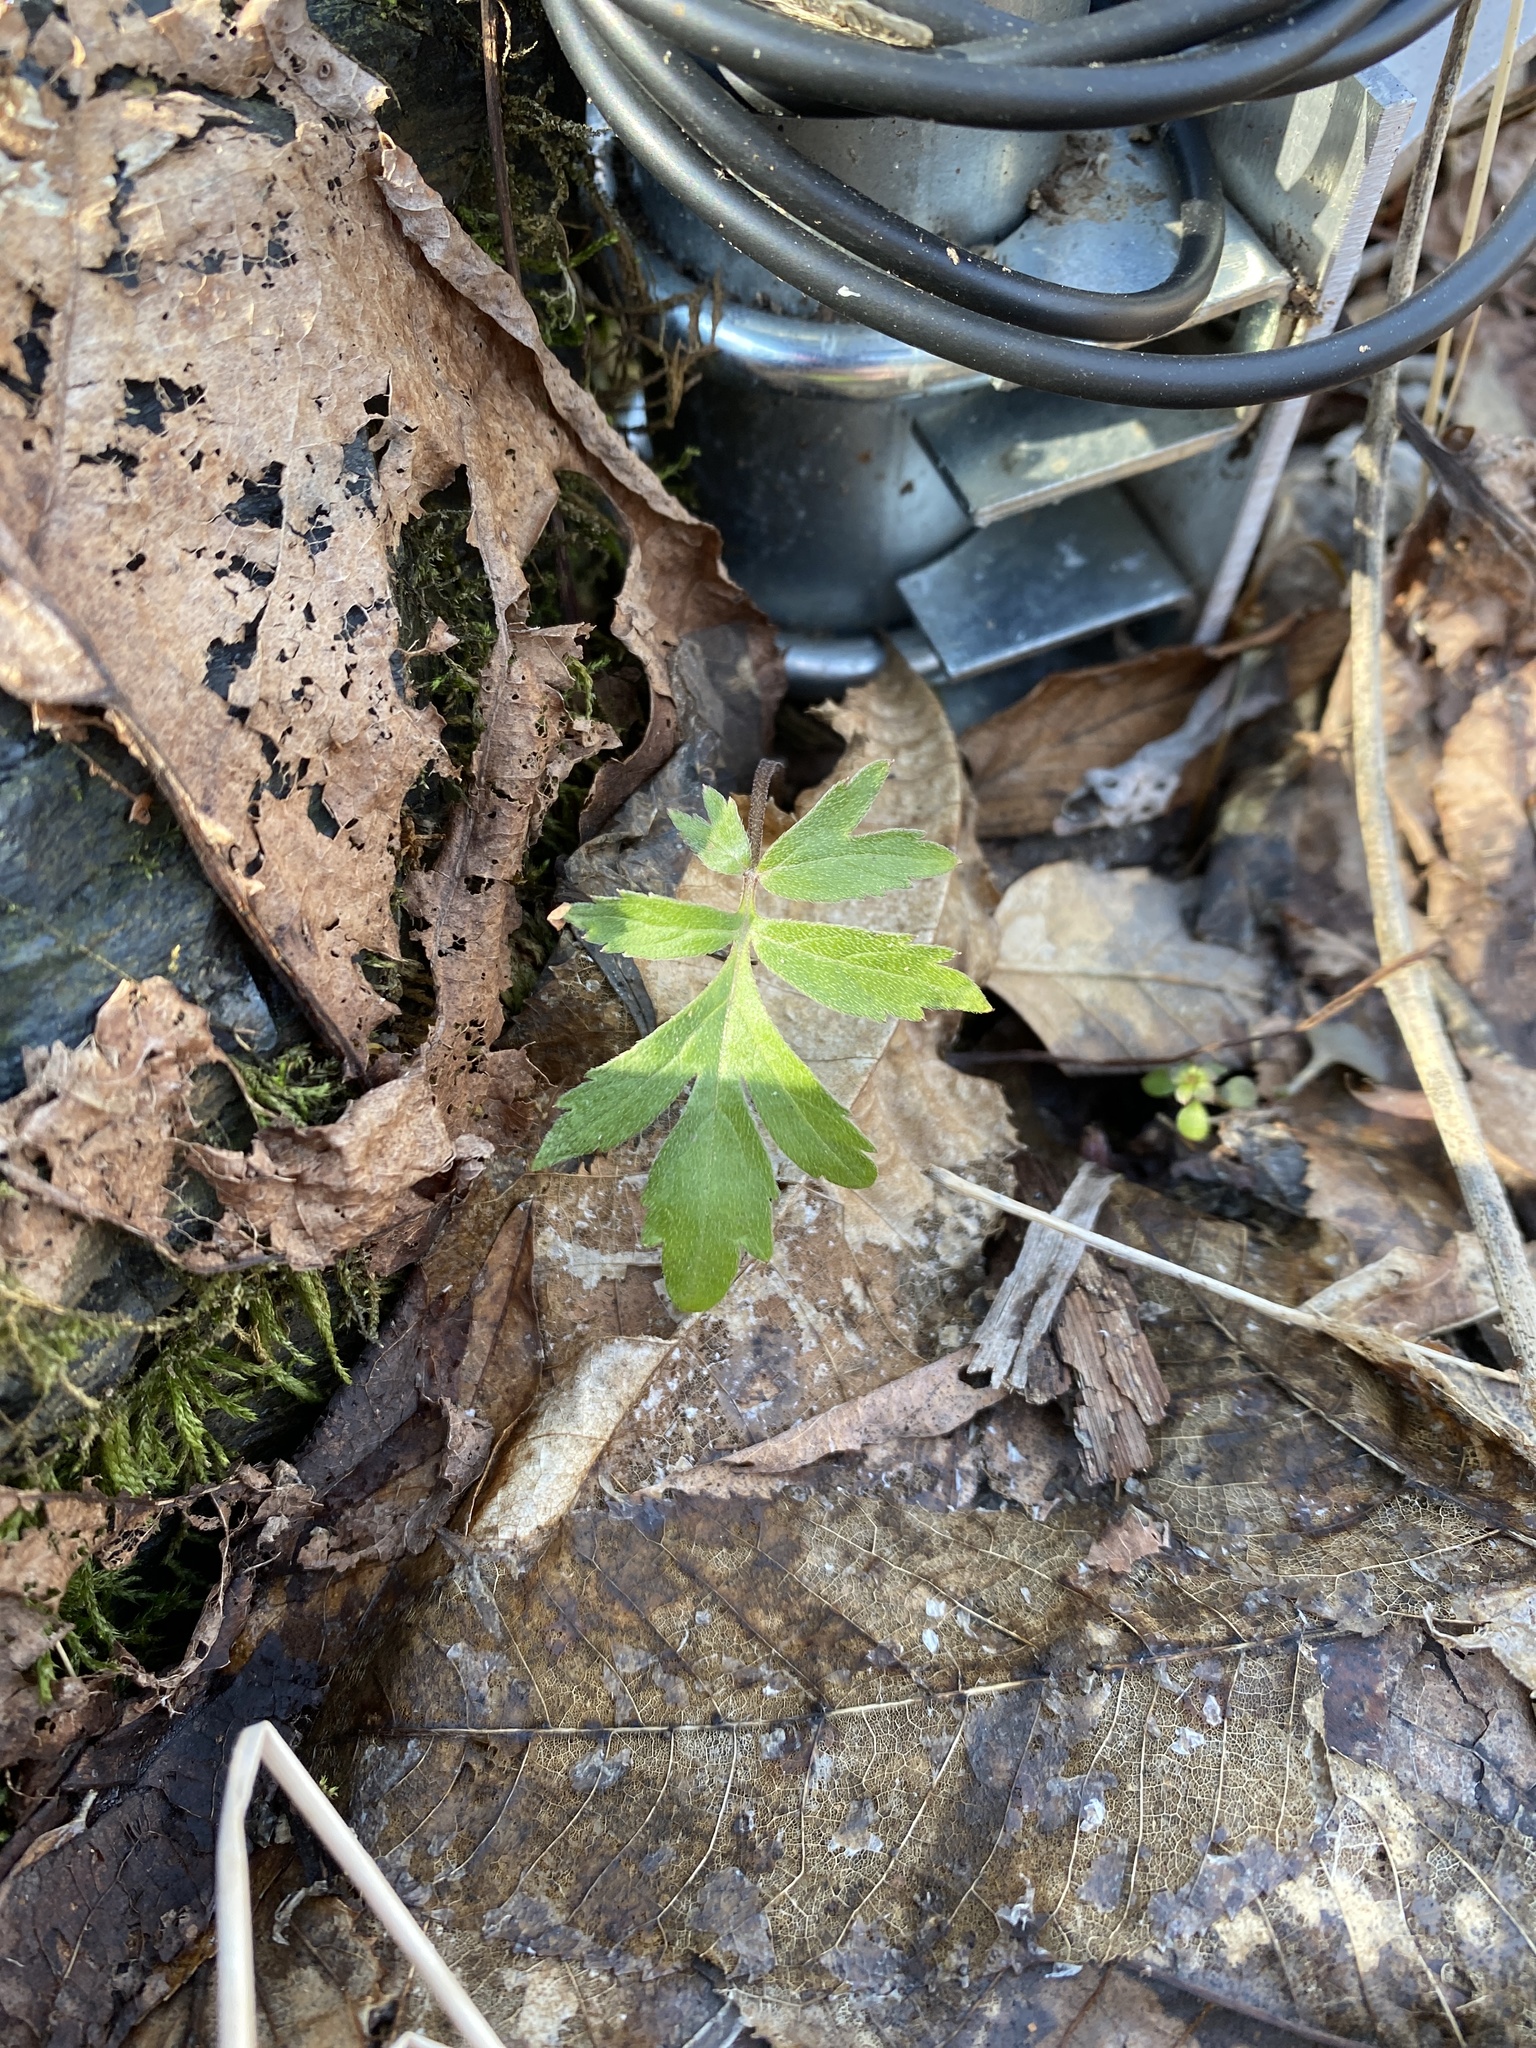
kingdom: Plantae
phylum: Tracheophyta
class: Magnoliopsida
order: Boraginales
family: Hydrophyllaceae
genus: Hydrophyllum
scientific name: Hydrophyllum virginianum
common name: Virginia waterleaf
